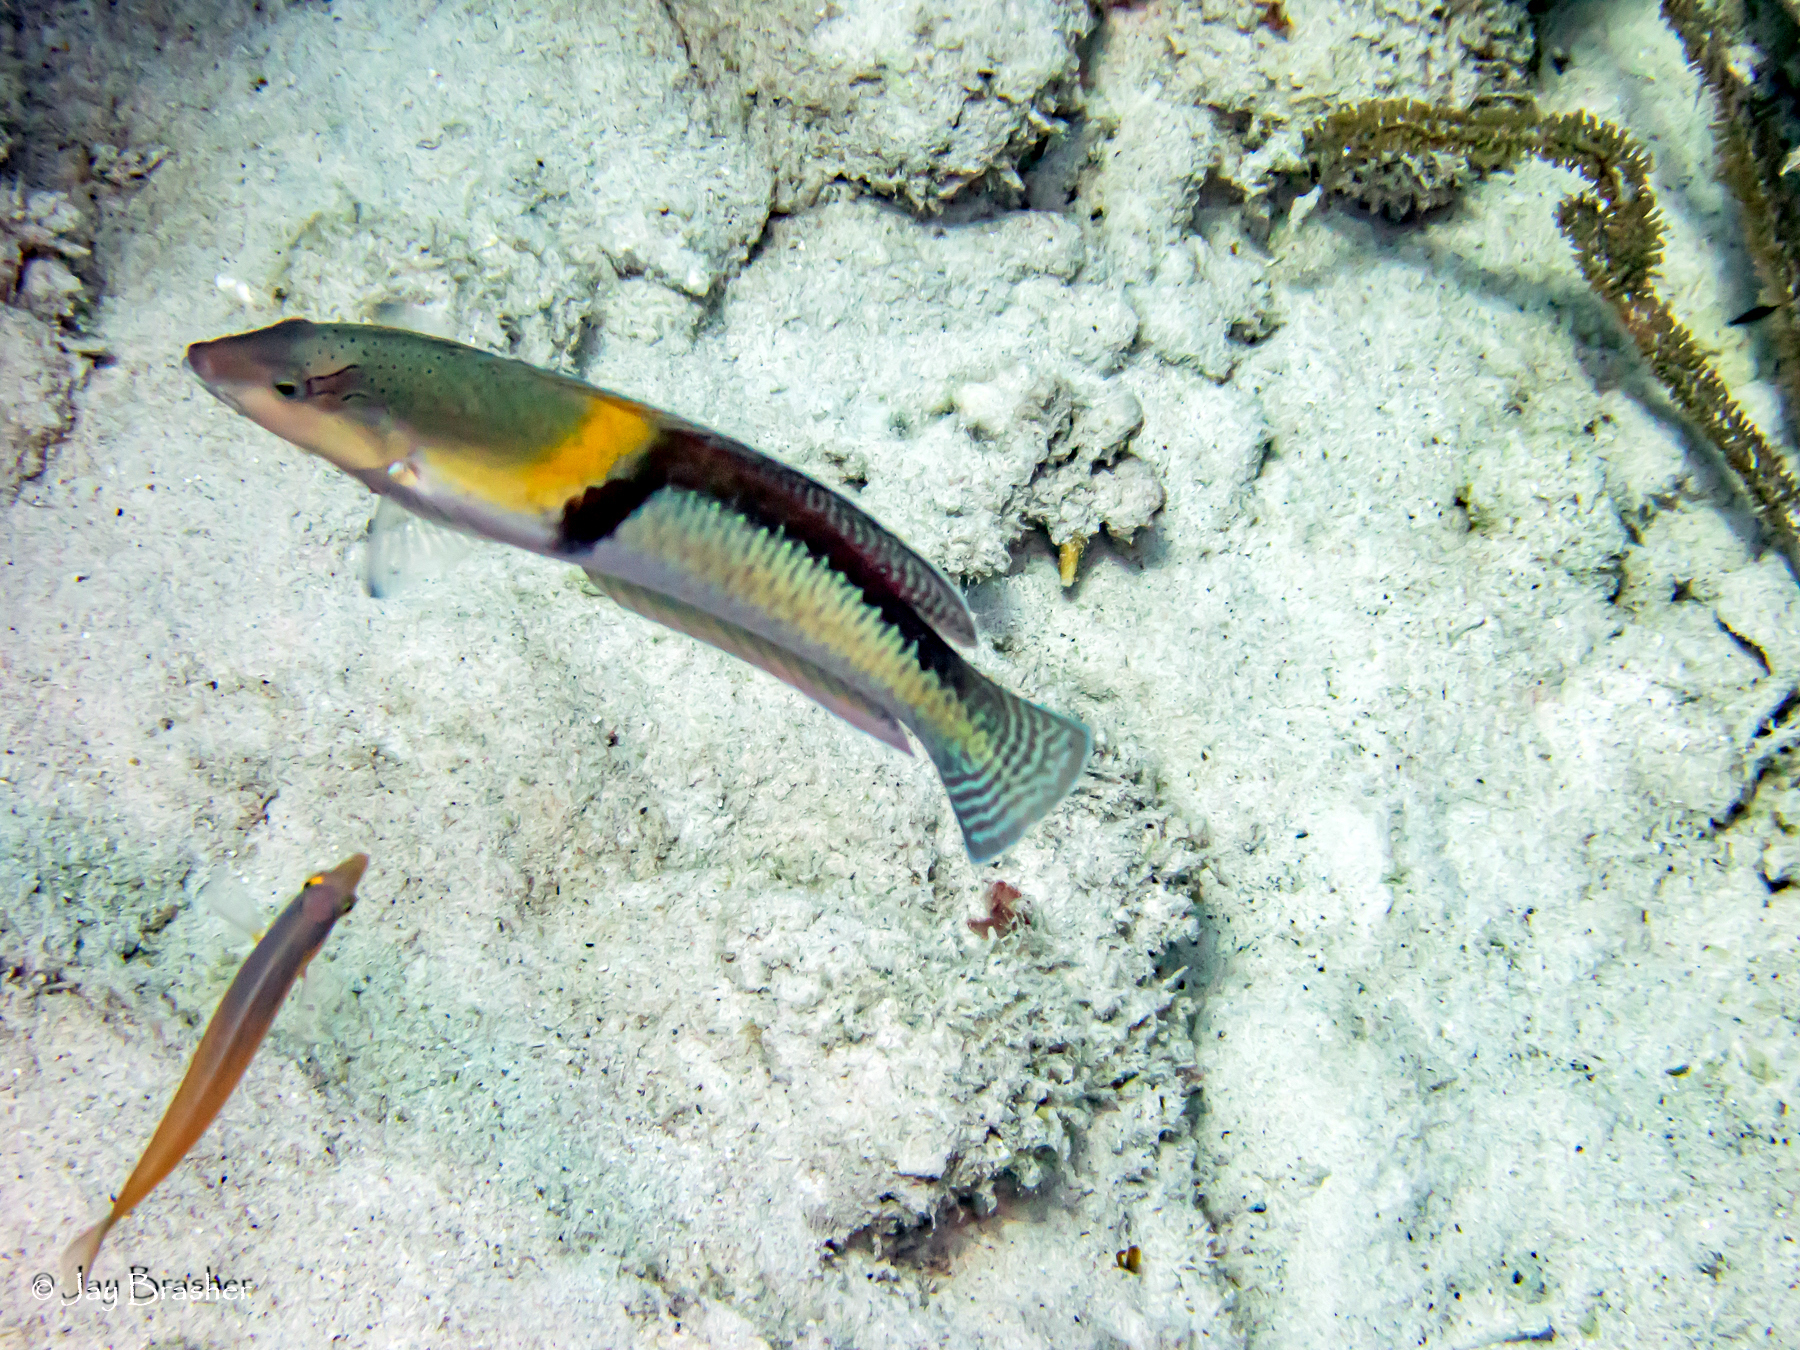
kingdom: Animalia
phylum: Chordata
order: Perciformes
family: Labridae
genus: Halichoeres
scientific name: Halichoeres garnoti
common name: Yellowhead wrasse
